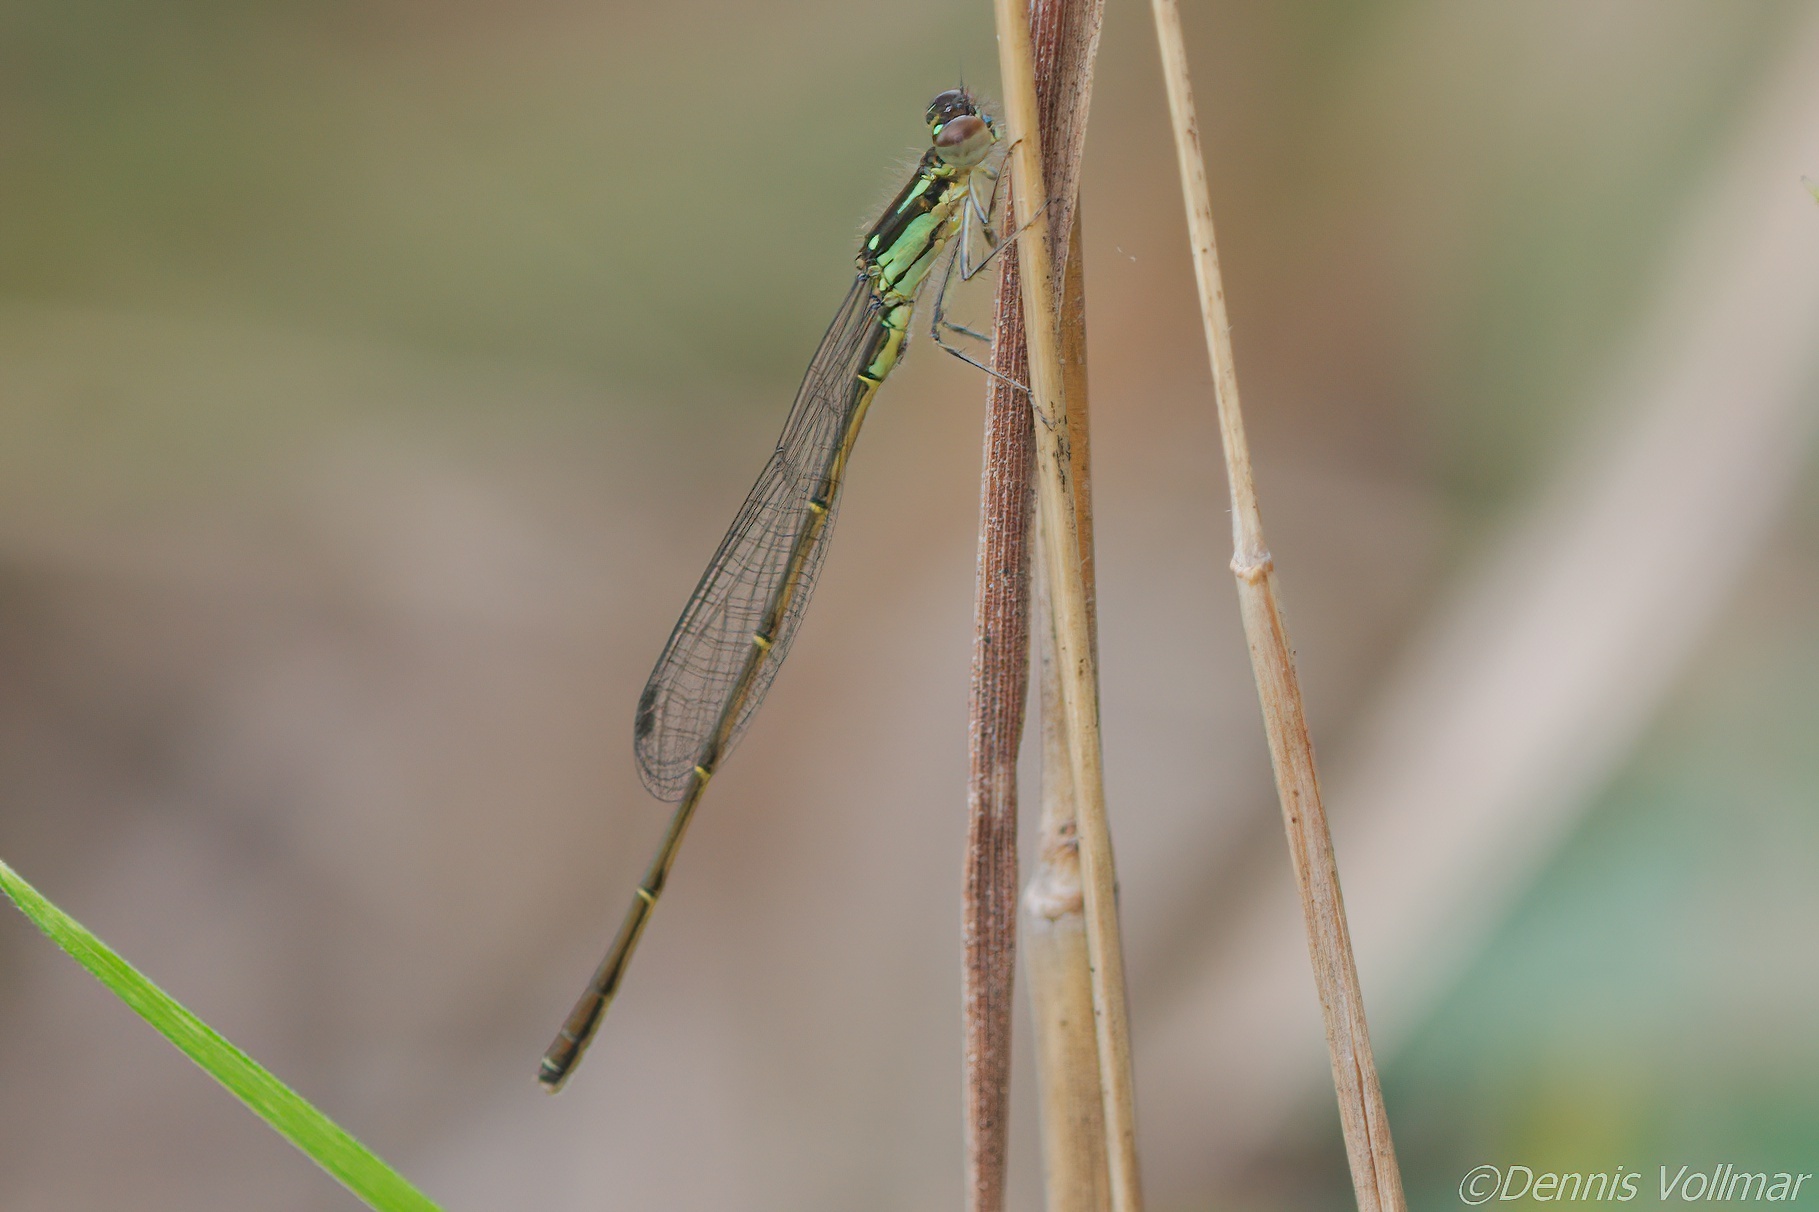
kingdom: Animalia
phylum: Arthropoda
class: Insecta
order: Odonata
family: Coenagrionidae
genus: Ischnura
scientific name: Ischnura posita
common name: Fragile forktail
